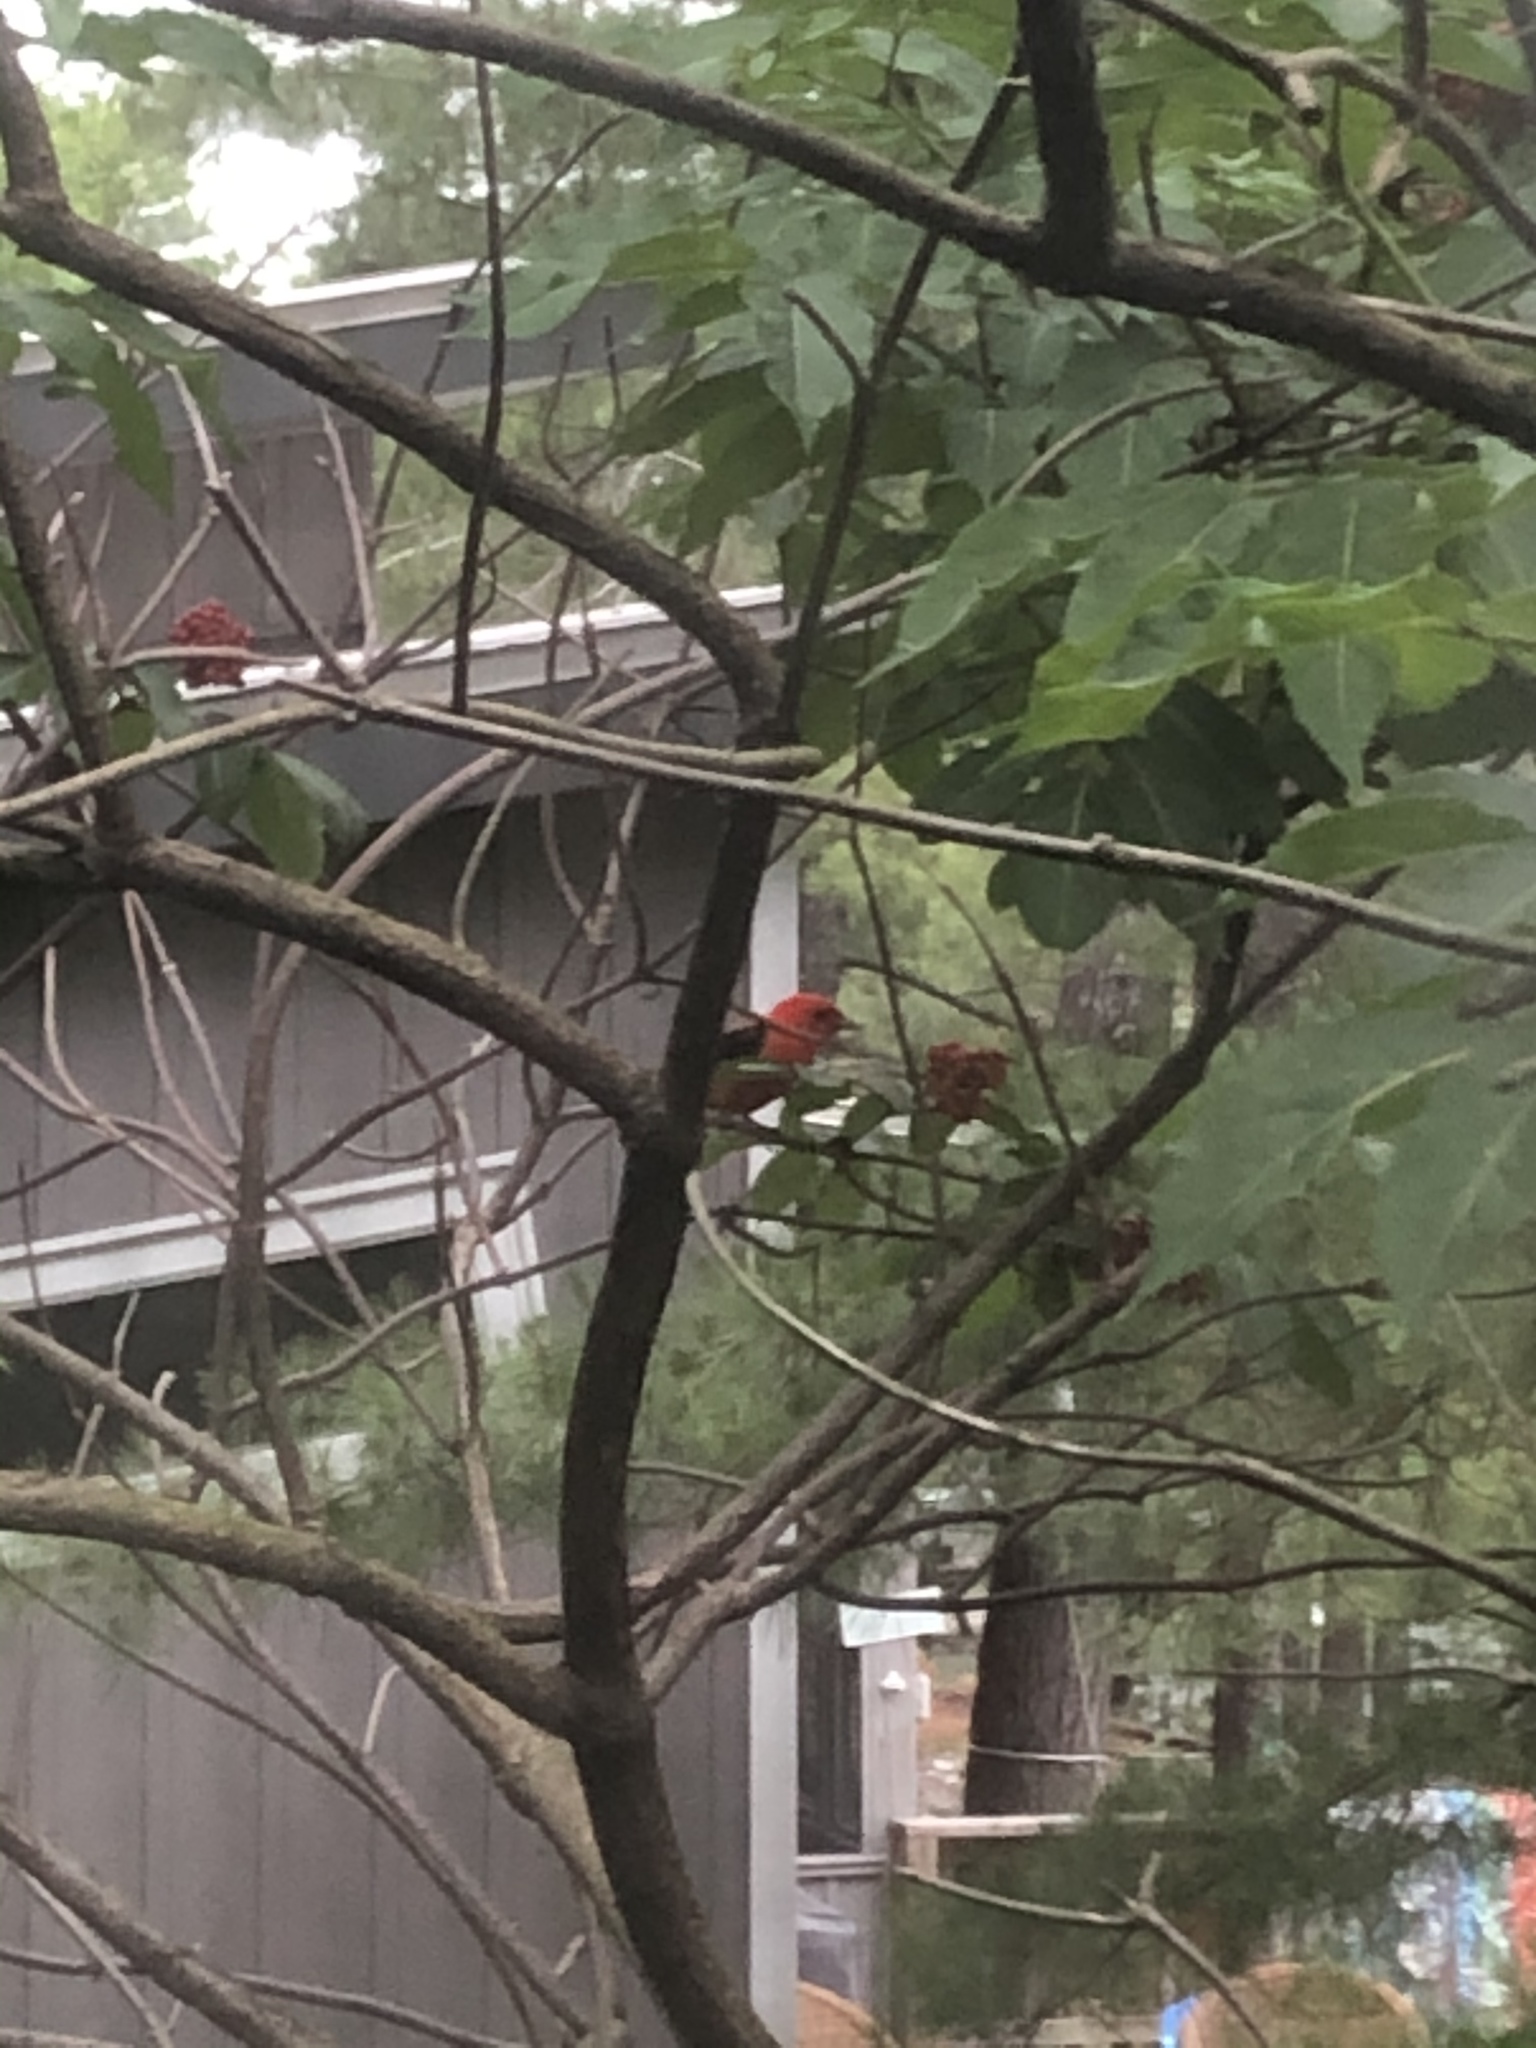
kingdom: Animalia
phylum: Chordata
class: Aves
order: Passeriformes
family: Cardinalidae
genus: Piranga
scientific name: Piranga olivacea
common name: Scarlet tanager
